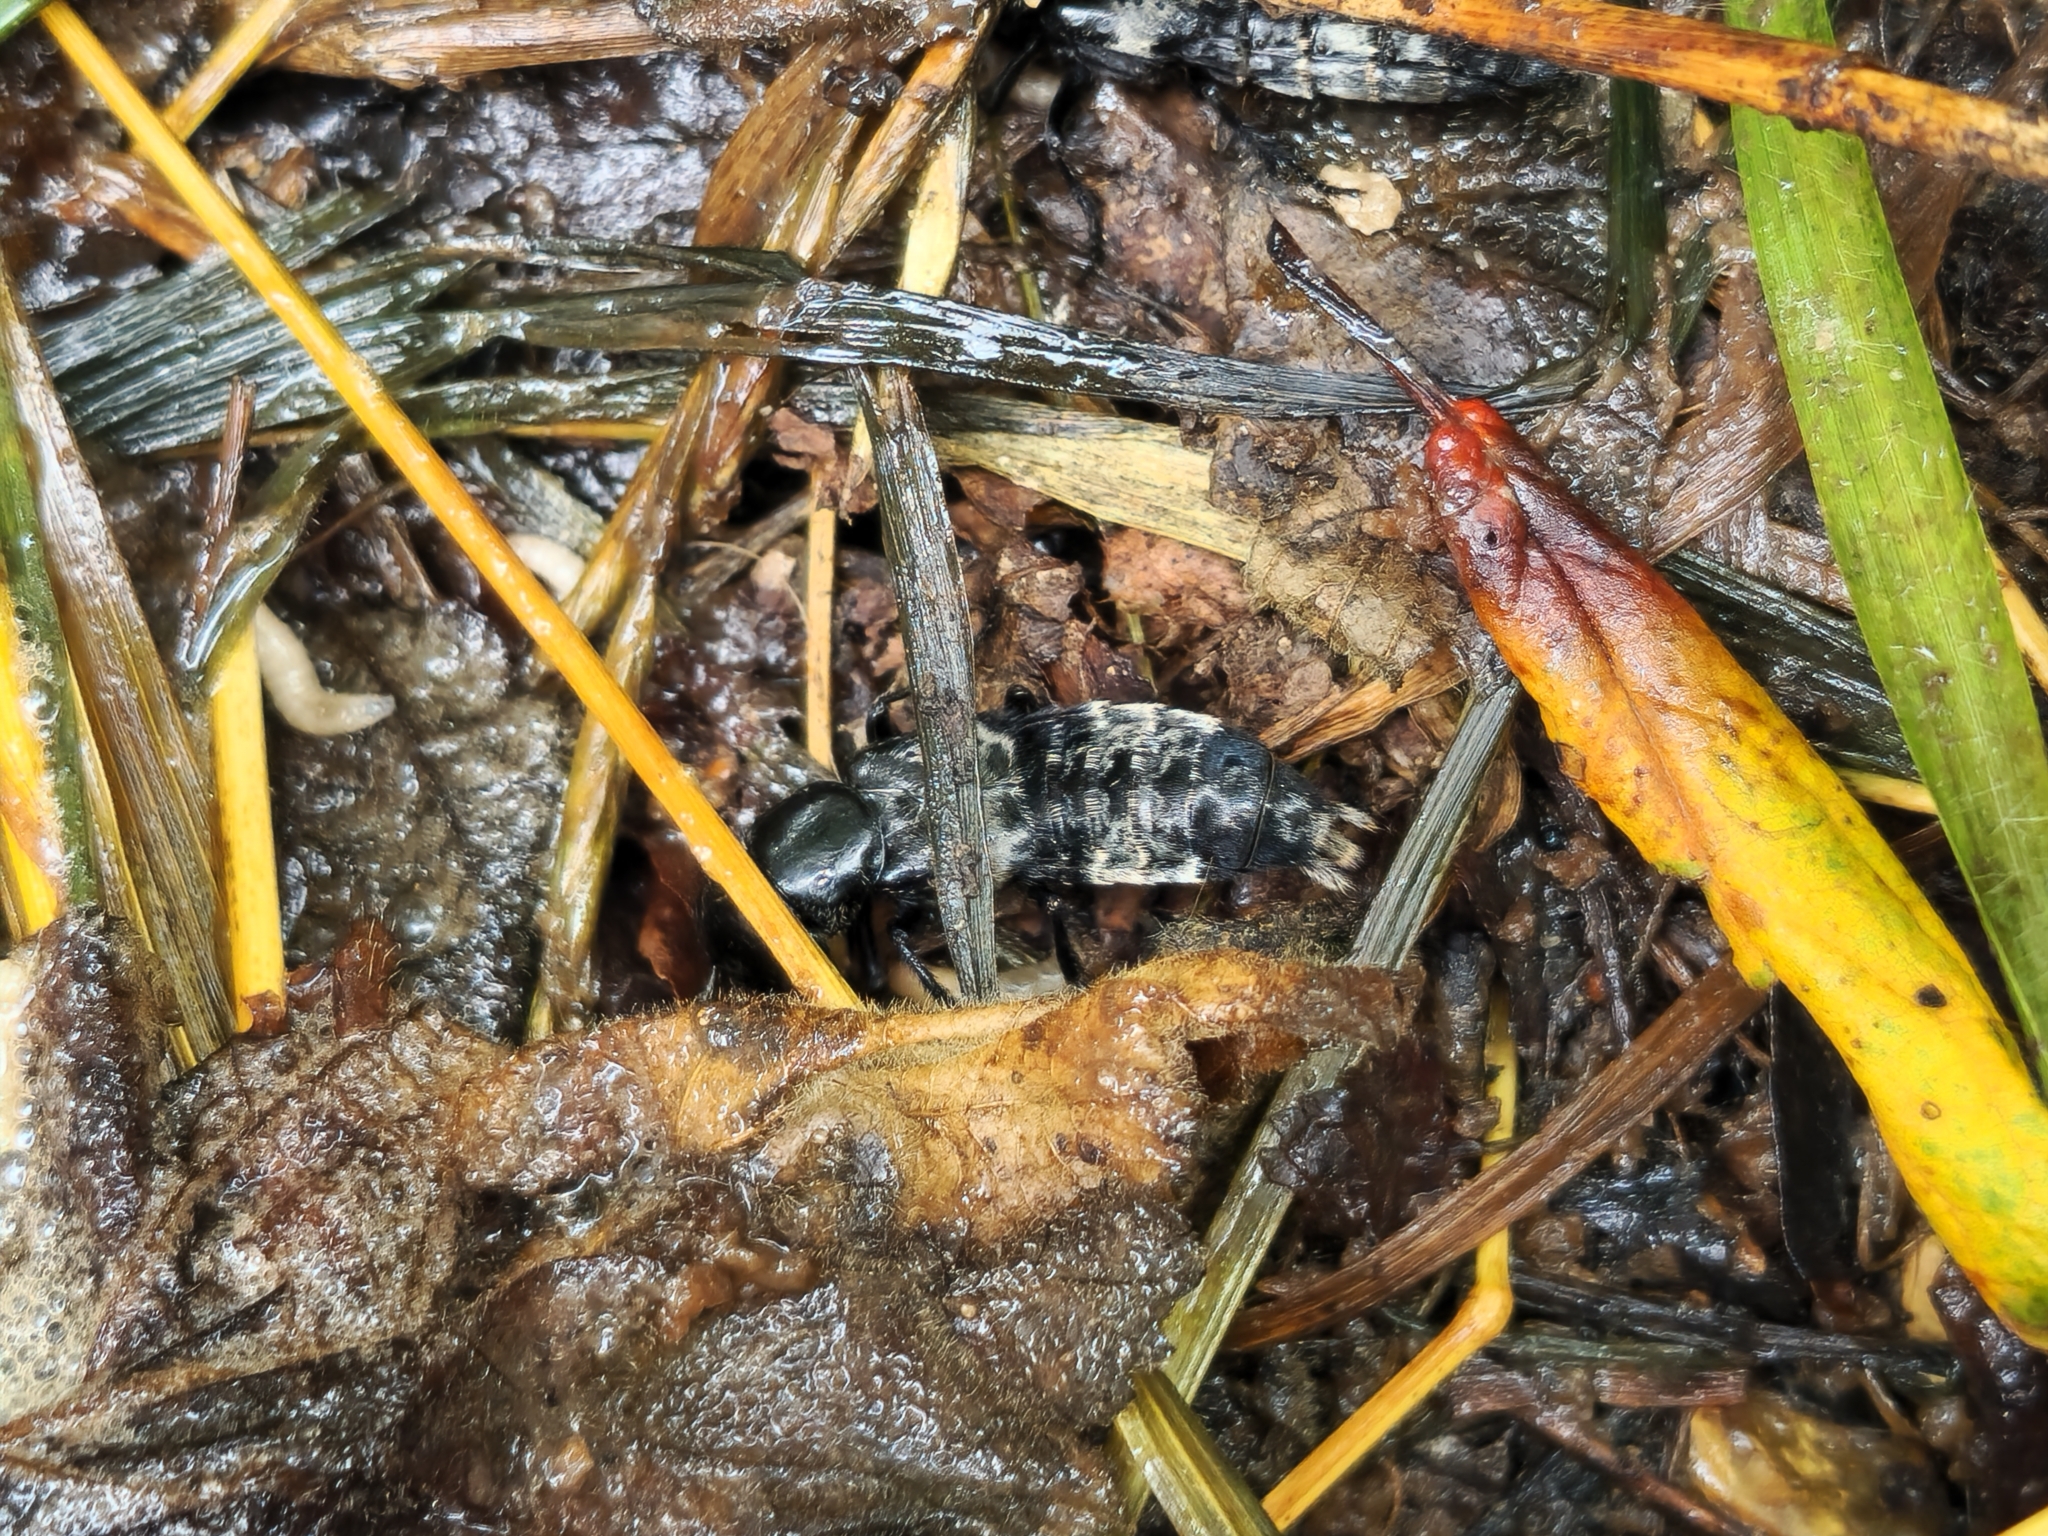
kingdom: Animalia
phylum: Arthropoda
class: Insecta
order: Coleoptera
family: Staphylinidae
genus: Creophilus
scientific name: Creophilus maxillosus
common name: Hairy rove beetle
